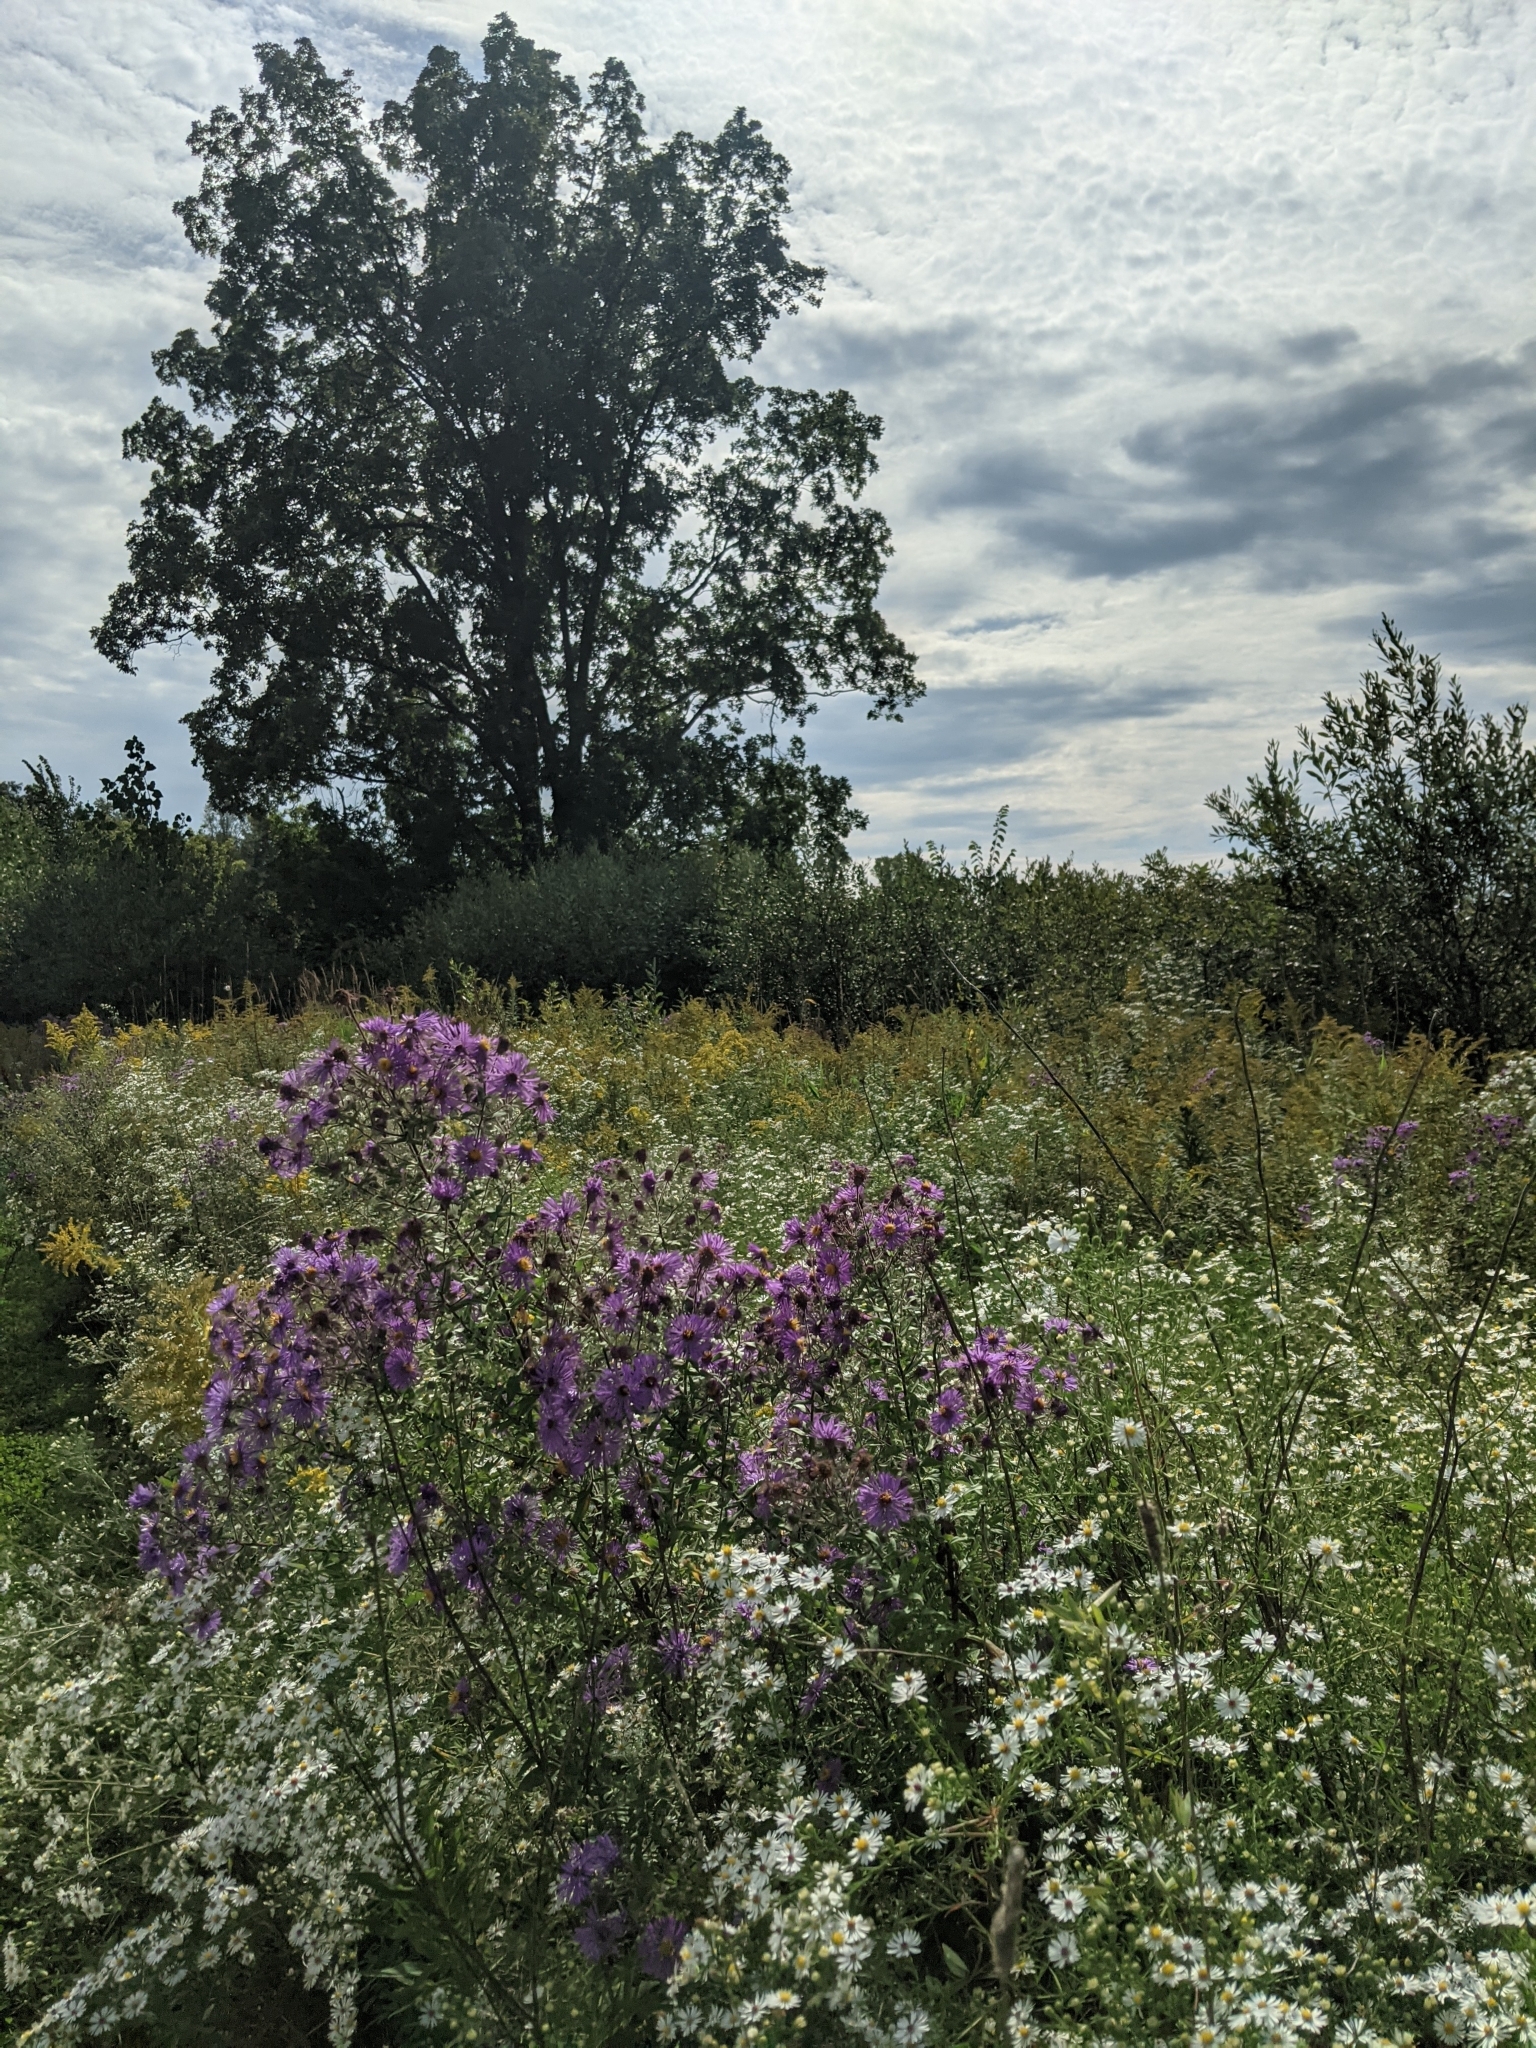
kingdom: Plantae
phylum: Tracheophyta
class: Magnoliopsida
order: Asterales
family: Asteraceae
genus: Symphyotrichum
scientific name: Symphyotrichum novae-angliae
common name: Michaelmas daisy
